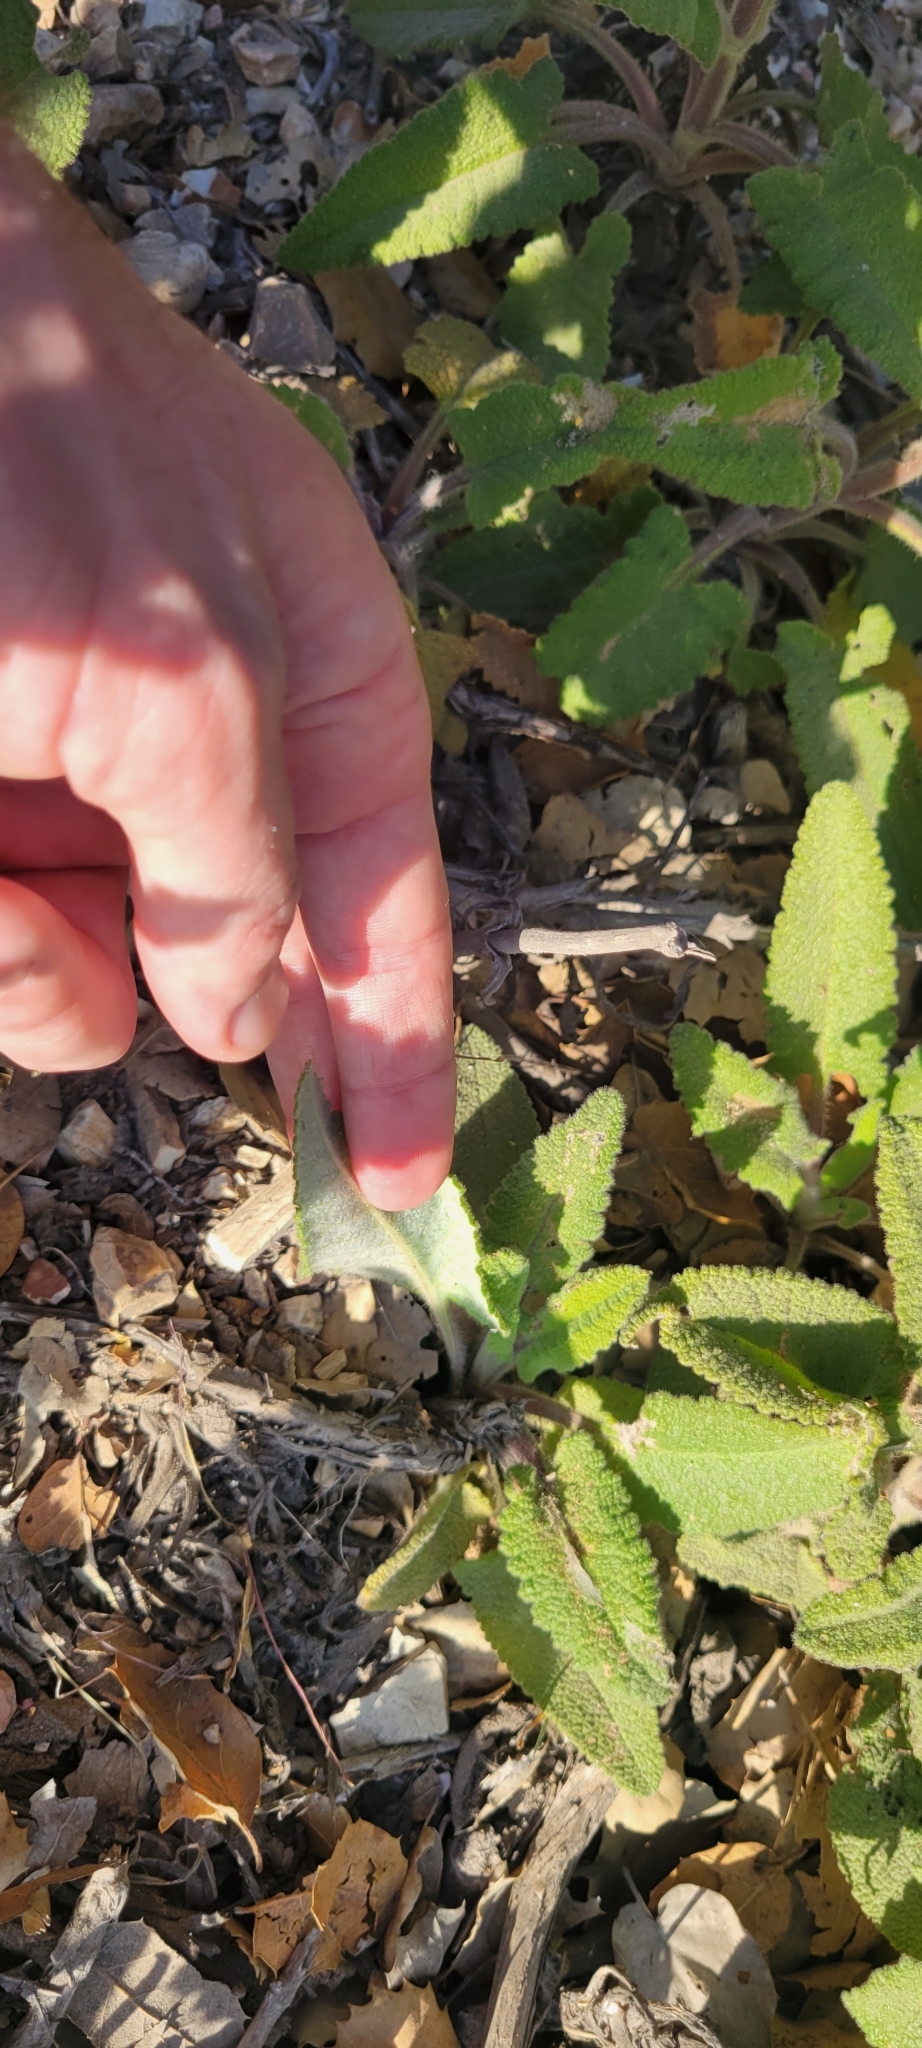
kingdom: Plantae
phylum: Tracheophyta
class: Magnoliopsida
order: Lamiales
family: Lamiaceae
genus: Salvia
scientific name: Salvia spathacea
